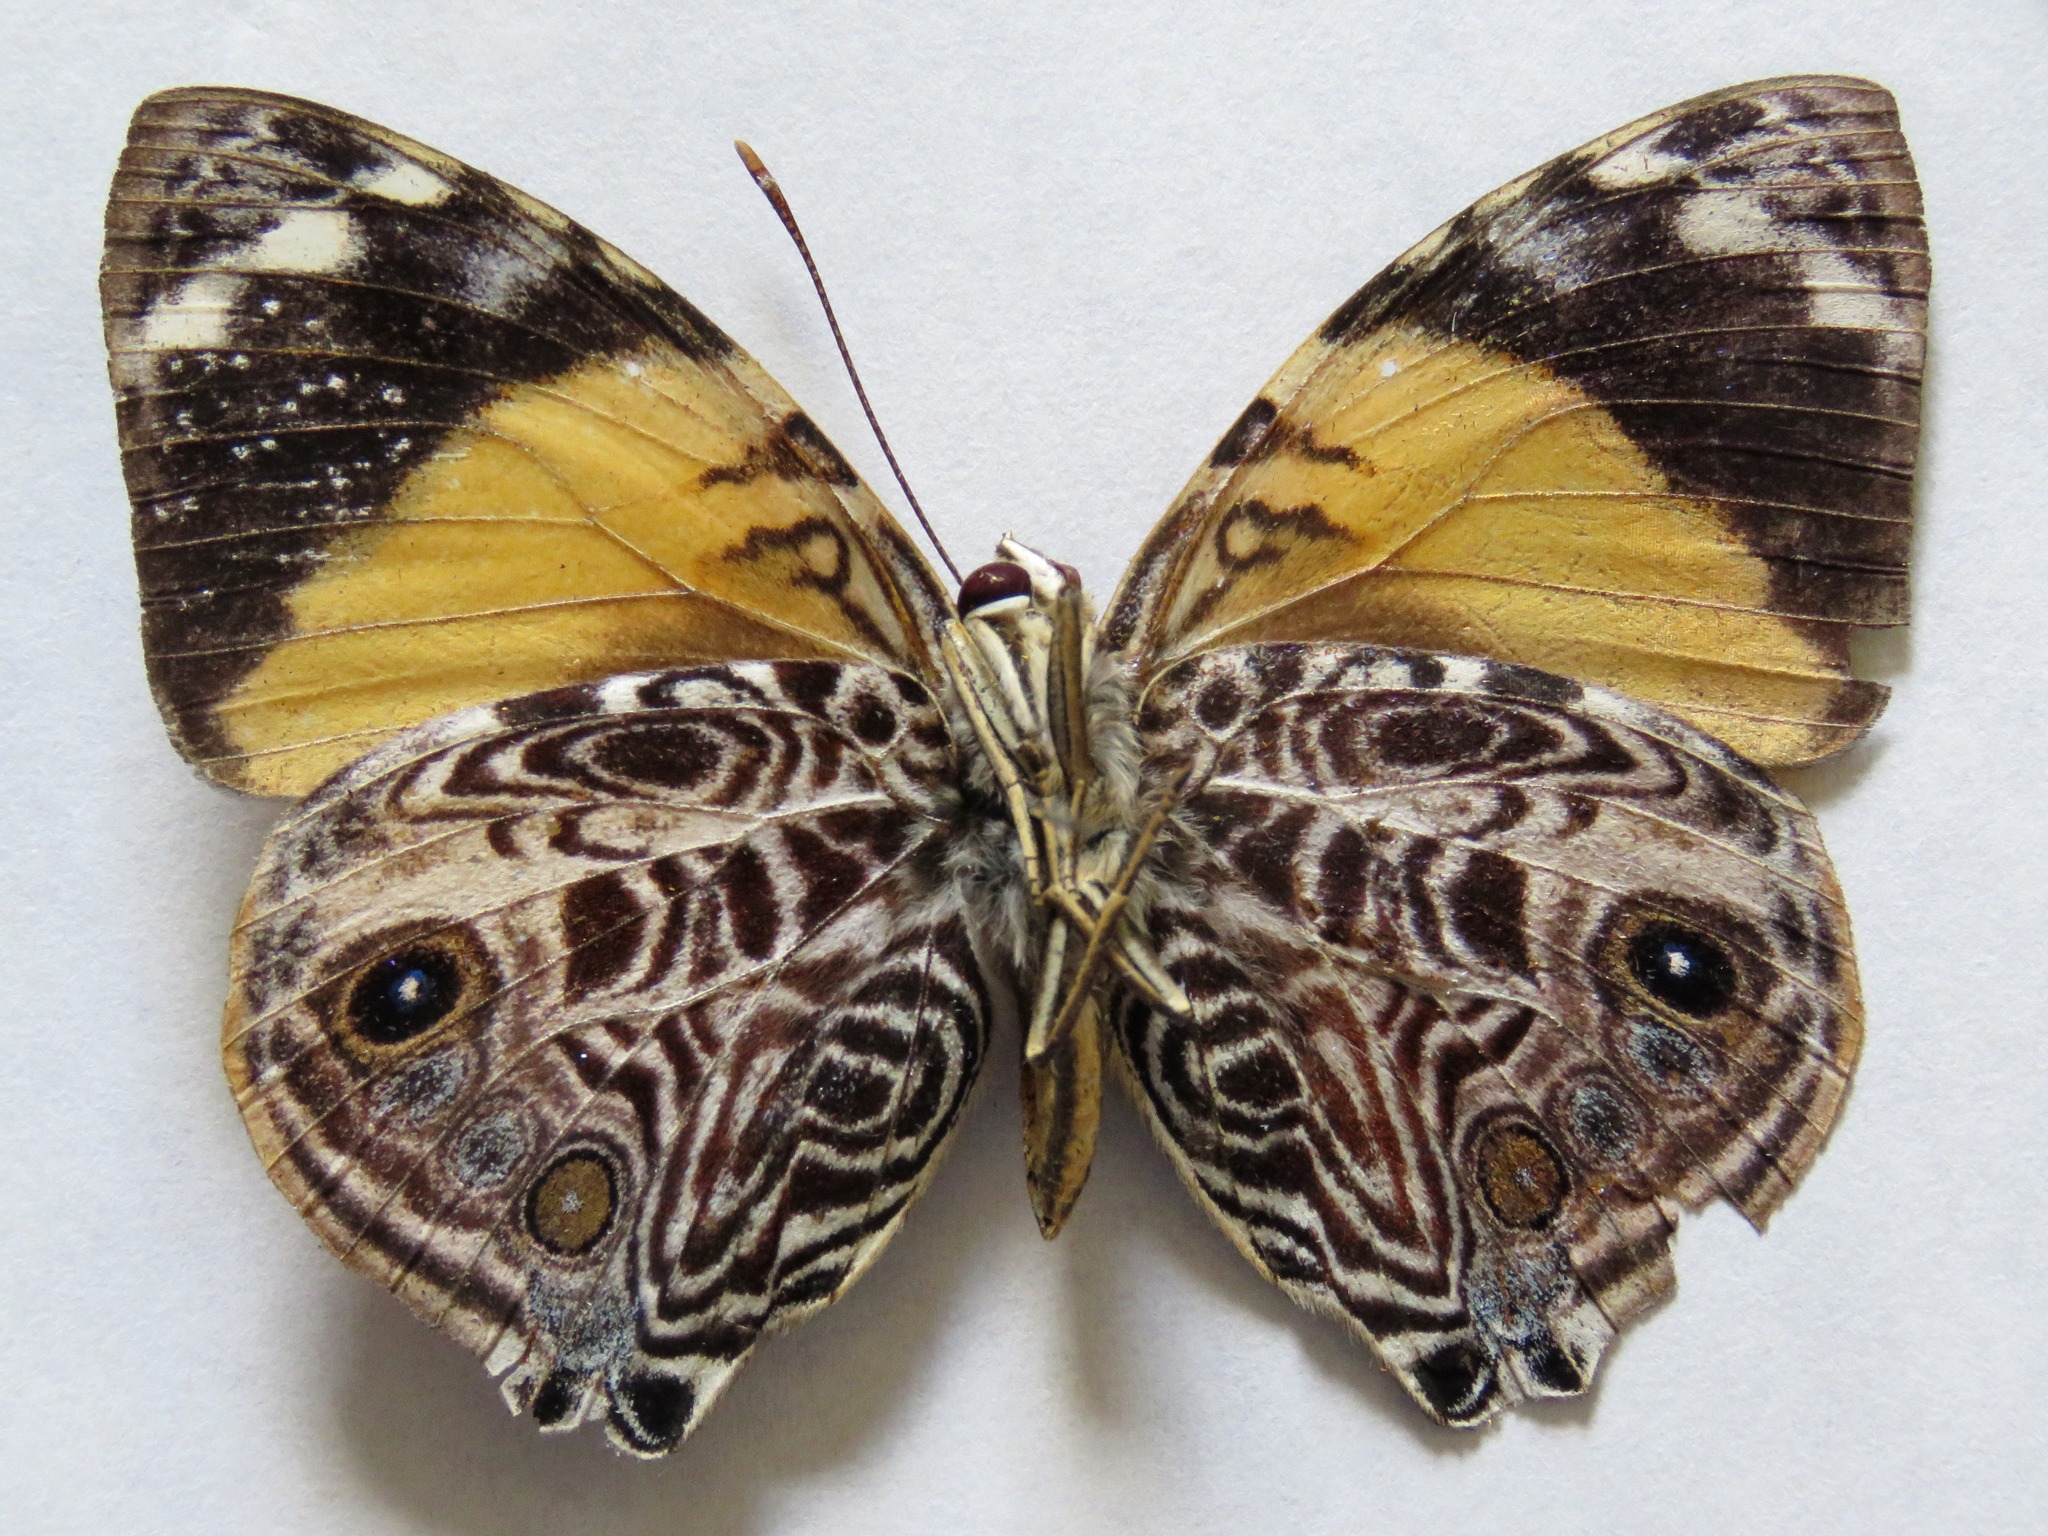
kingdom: Animalia
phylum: Arthropoda
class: Insecta
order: Lepidoptera
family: Nymphalidae
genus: Smyrna
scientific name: Smyrna blomfildia
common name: Blomfild's beauty
